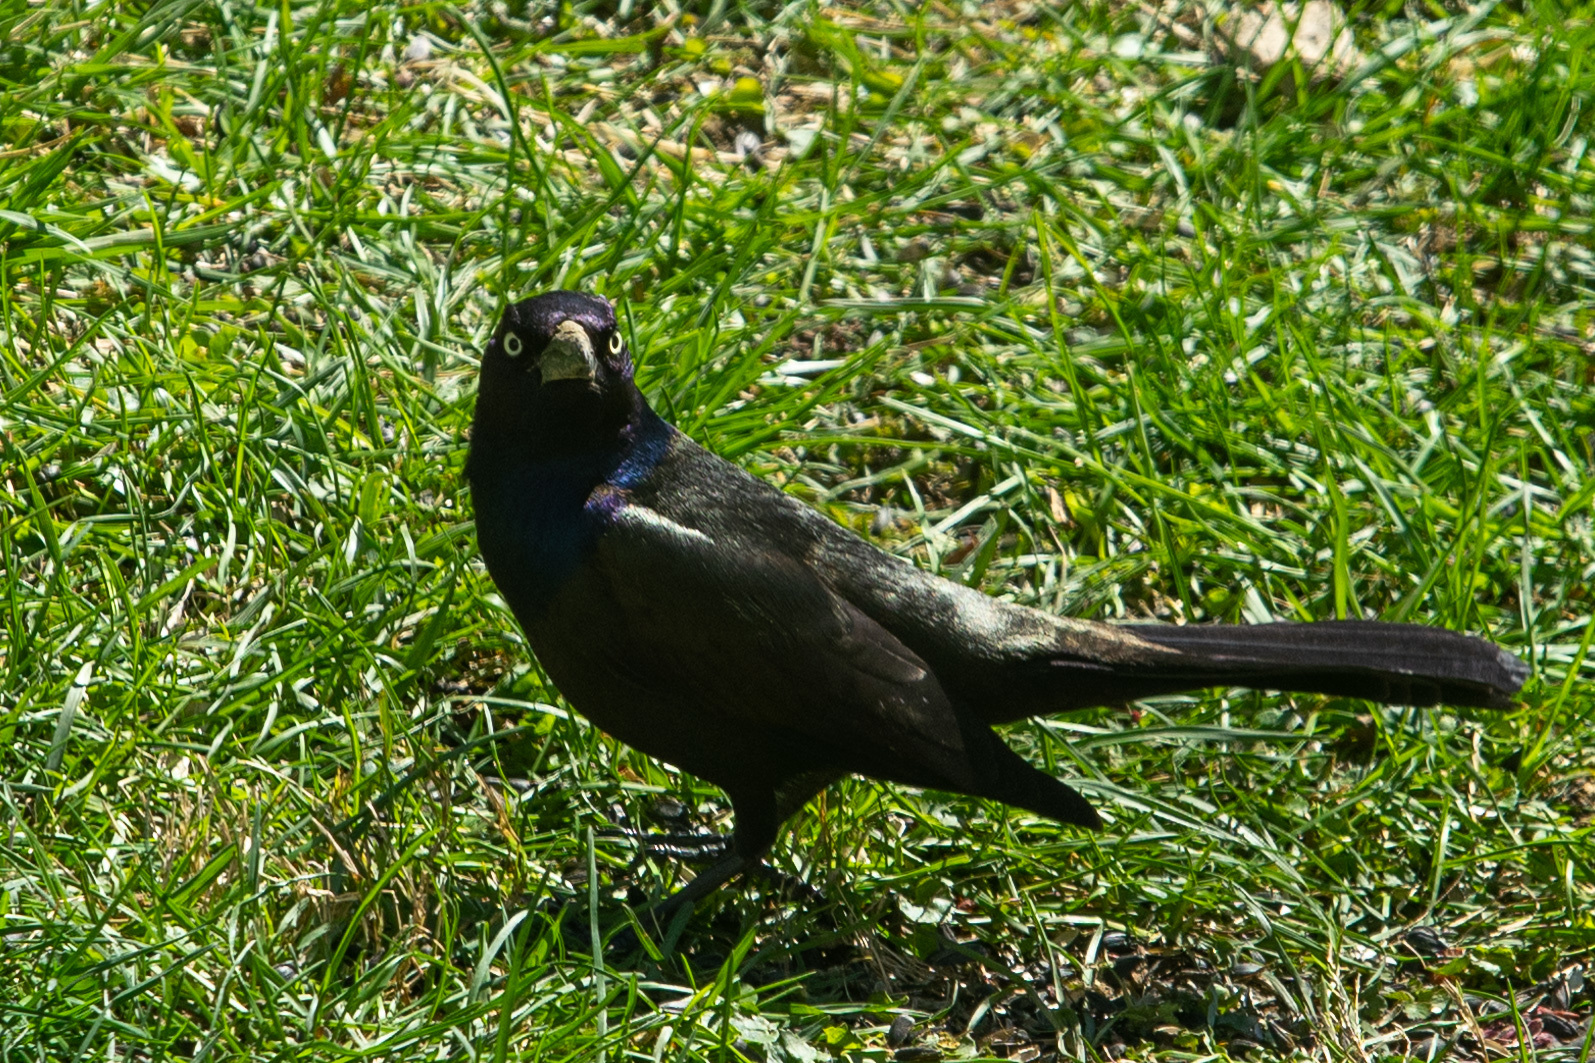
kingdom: Animalia
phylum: Chordata
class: Aves
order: Passeriformes
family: Icteridae
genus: Quiscalus
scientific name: Quiscalus quiscula
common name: Common grackle
